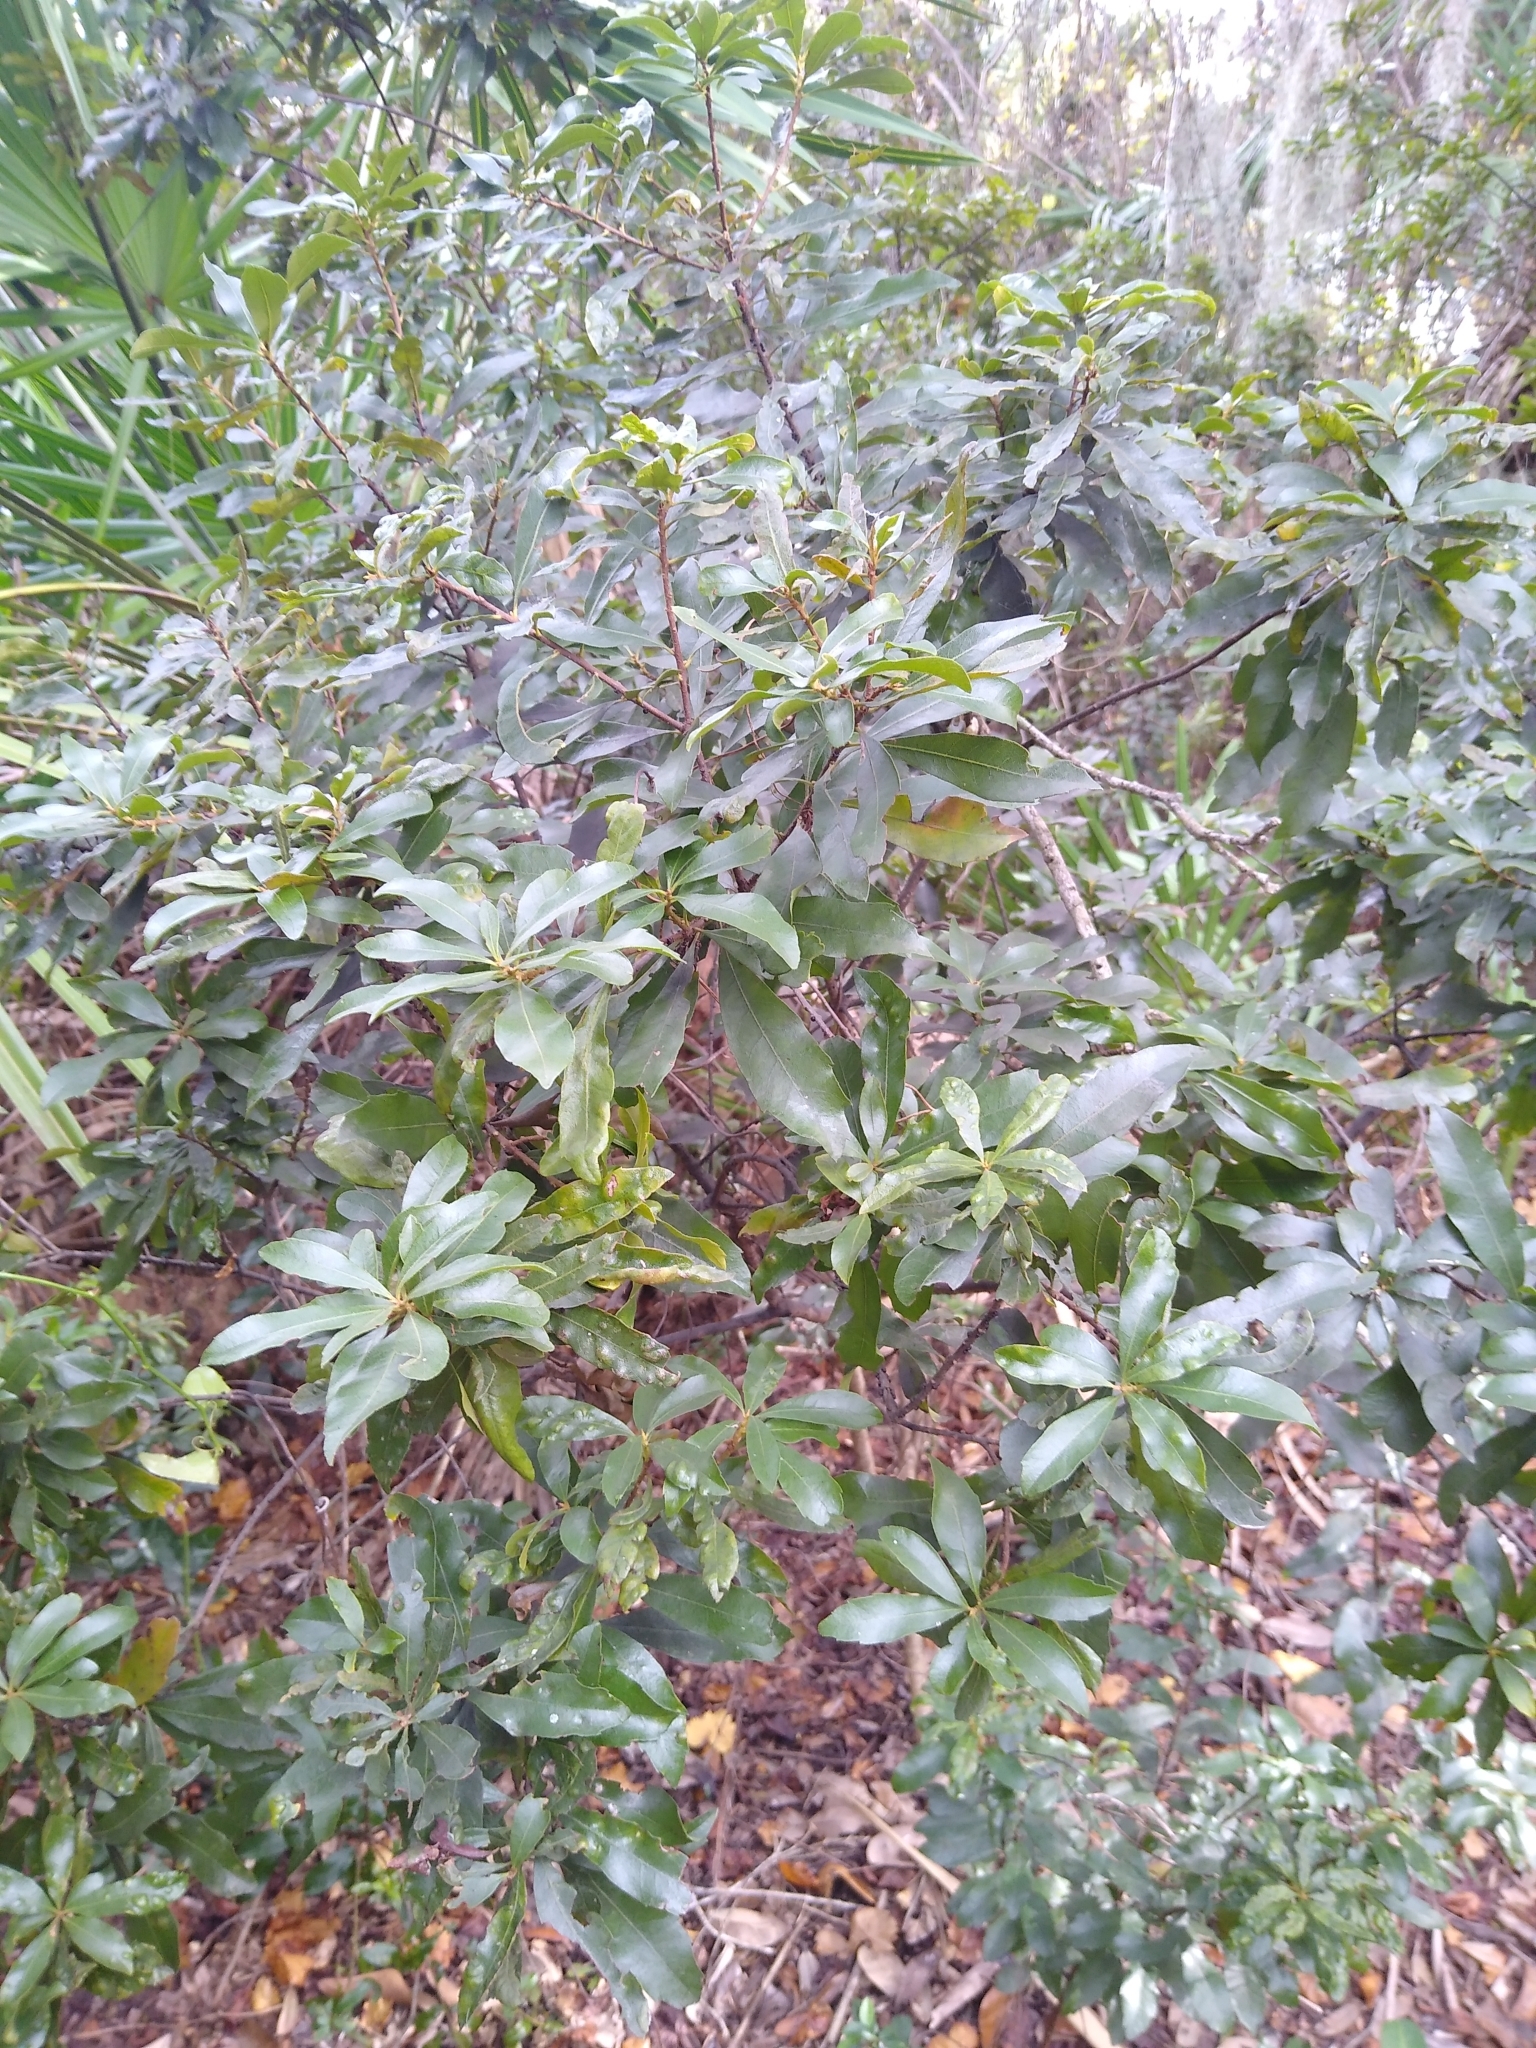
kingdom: Plantae
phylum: Tracheophyta
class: Magnoliopsida
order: Fagales
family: Myricaceae
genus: Morella
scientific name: Morella cerifera
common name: Wax myrtle
